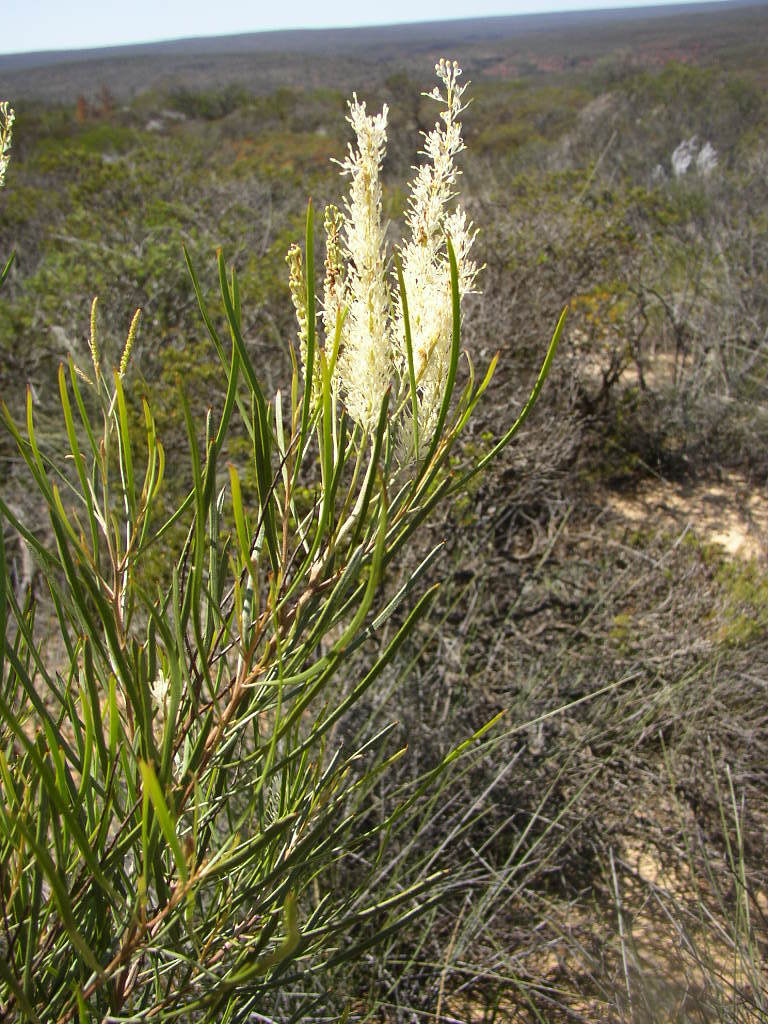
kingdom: Plantae
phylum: Tracheophyta
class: Magnoliopsida
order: Proteales
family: Proteaceae
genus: Grevillea
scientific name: Grevillea biformis
